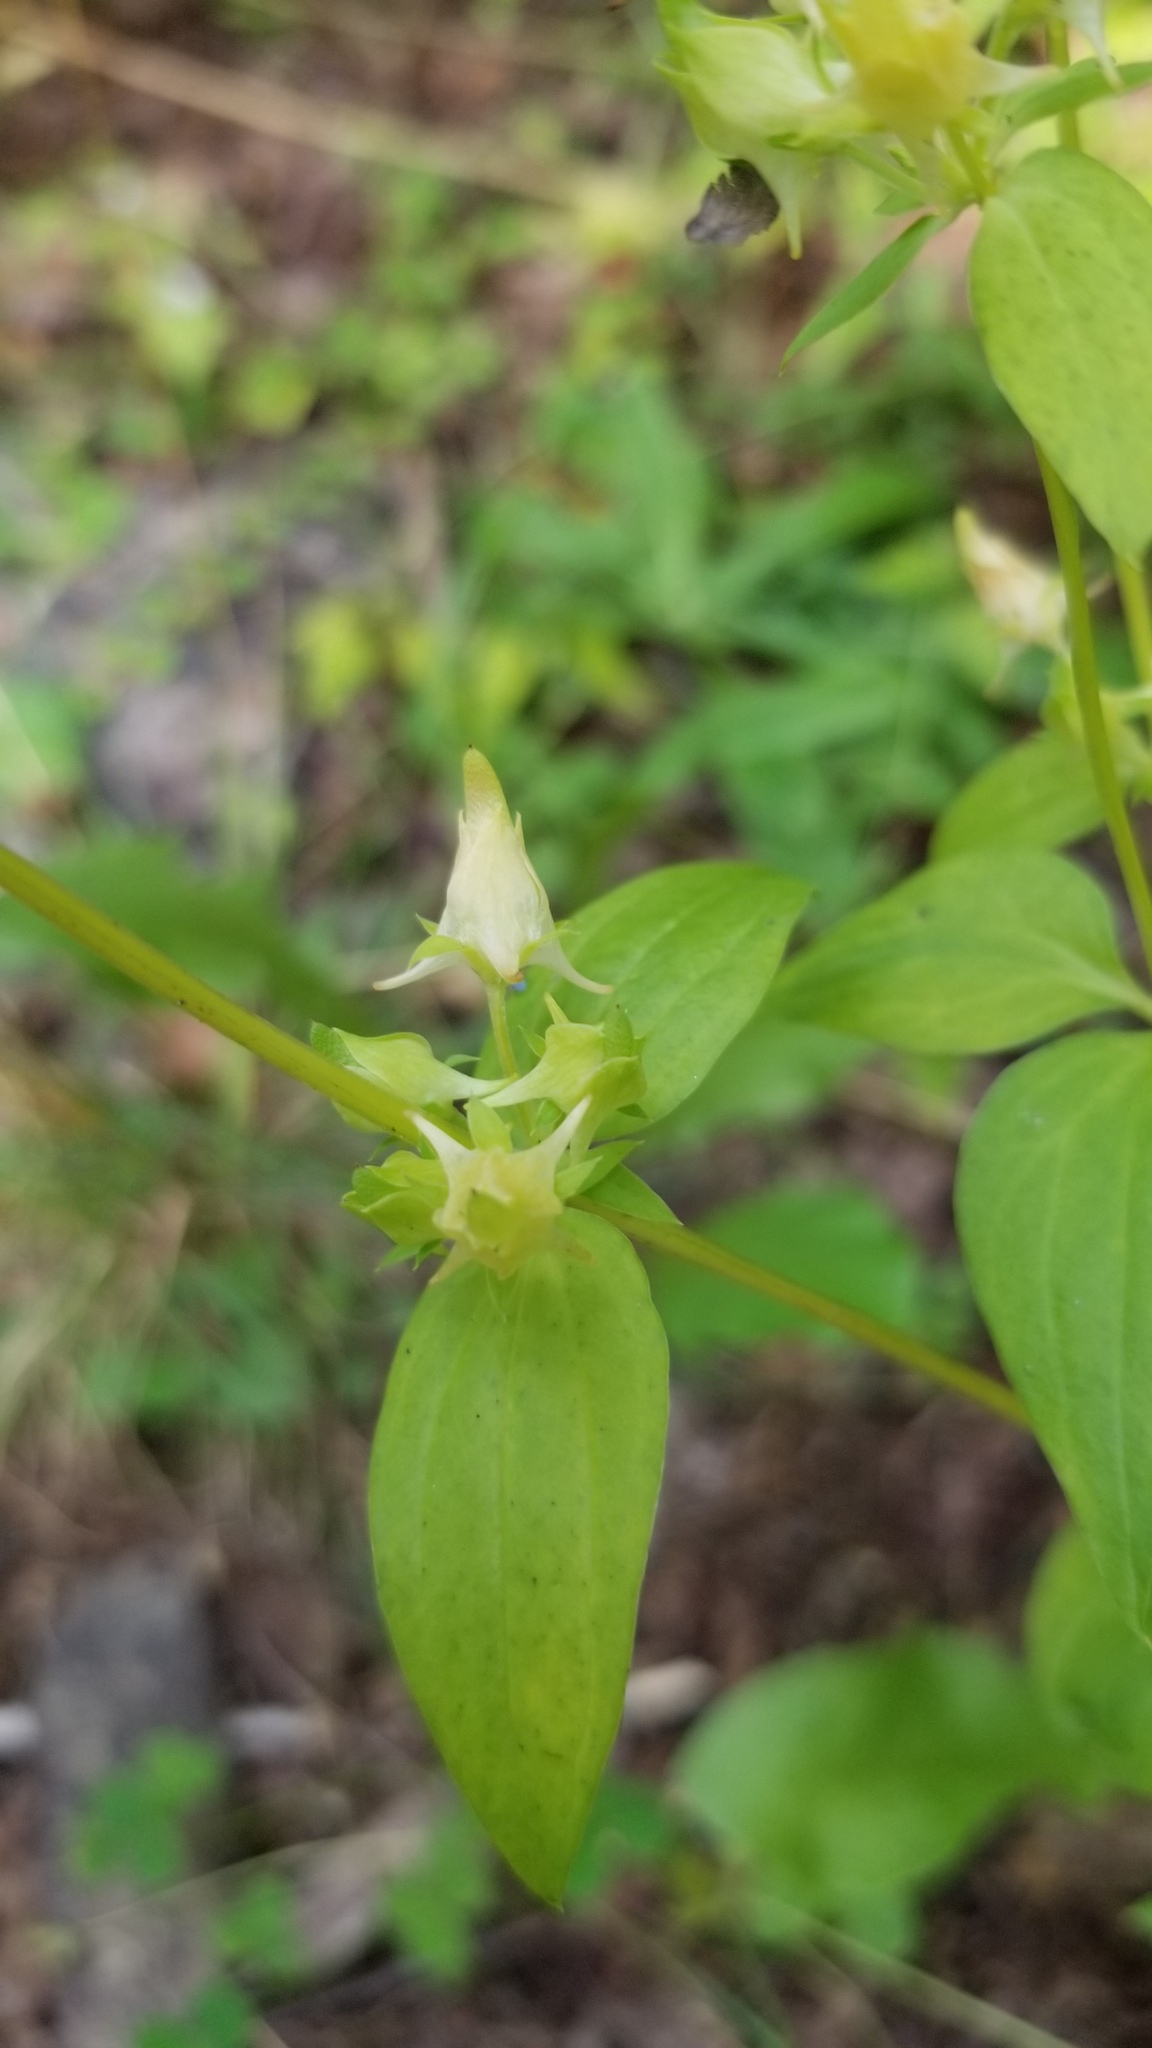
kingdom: Plantae
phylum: Tracheophyta
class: Magnoliopsida
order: Gentianales
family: Gentianaceae
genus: Halenia
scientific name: Halenia deflexa
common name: American spurred gentian
